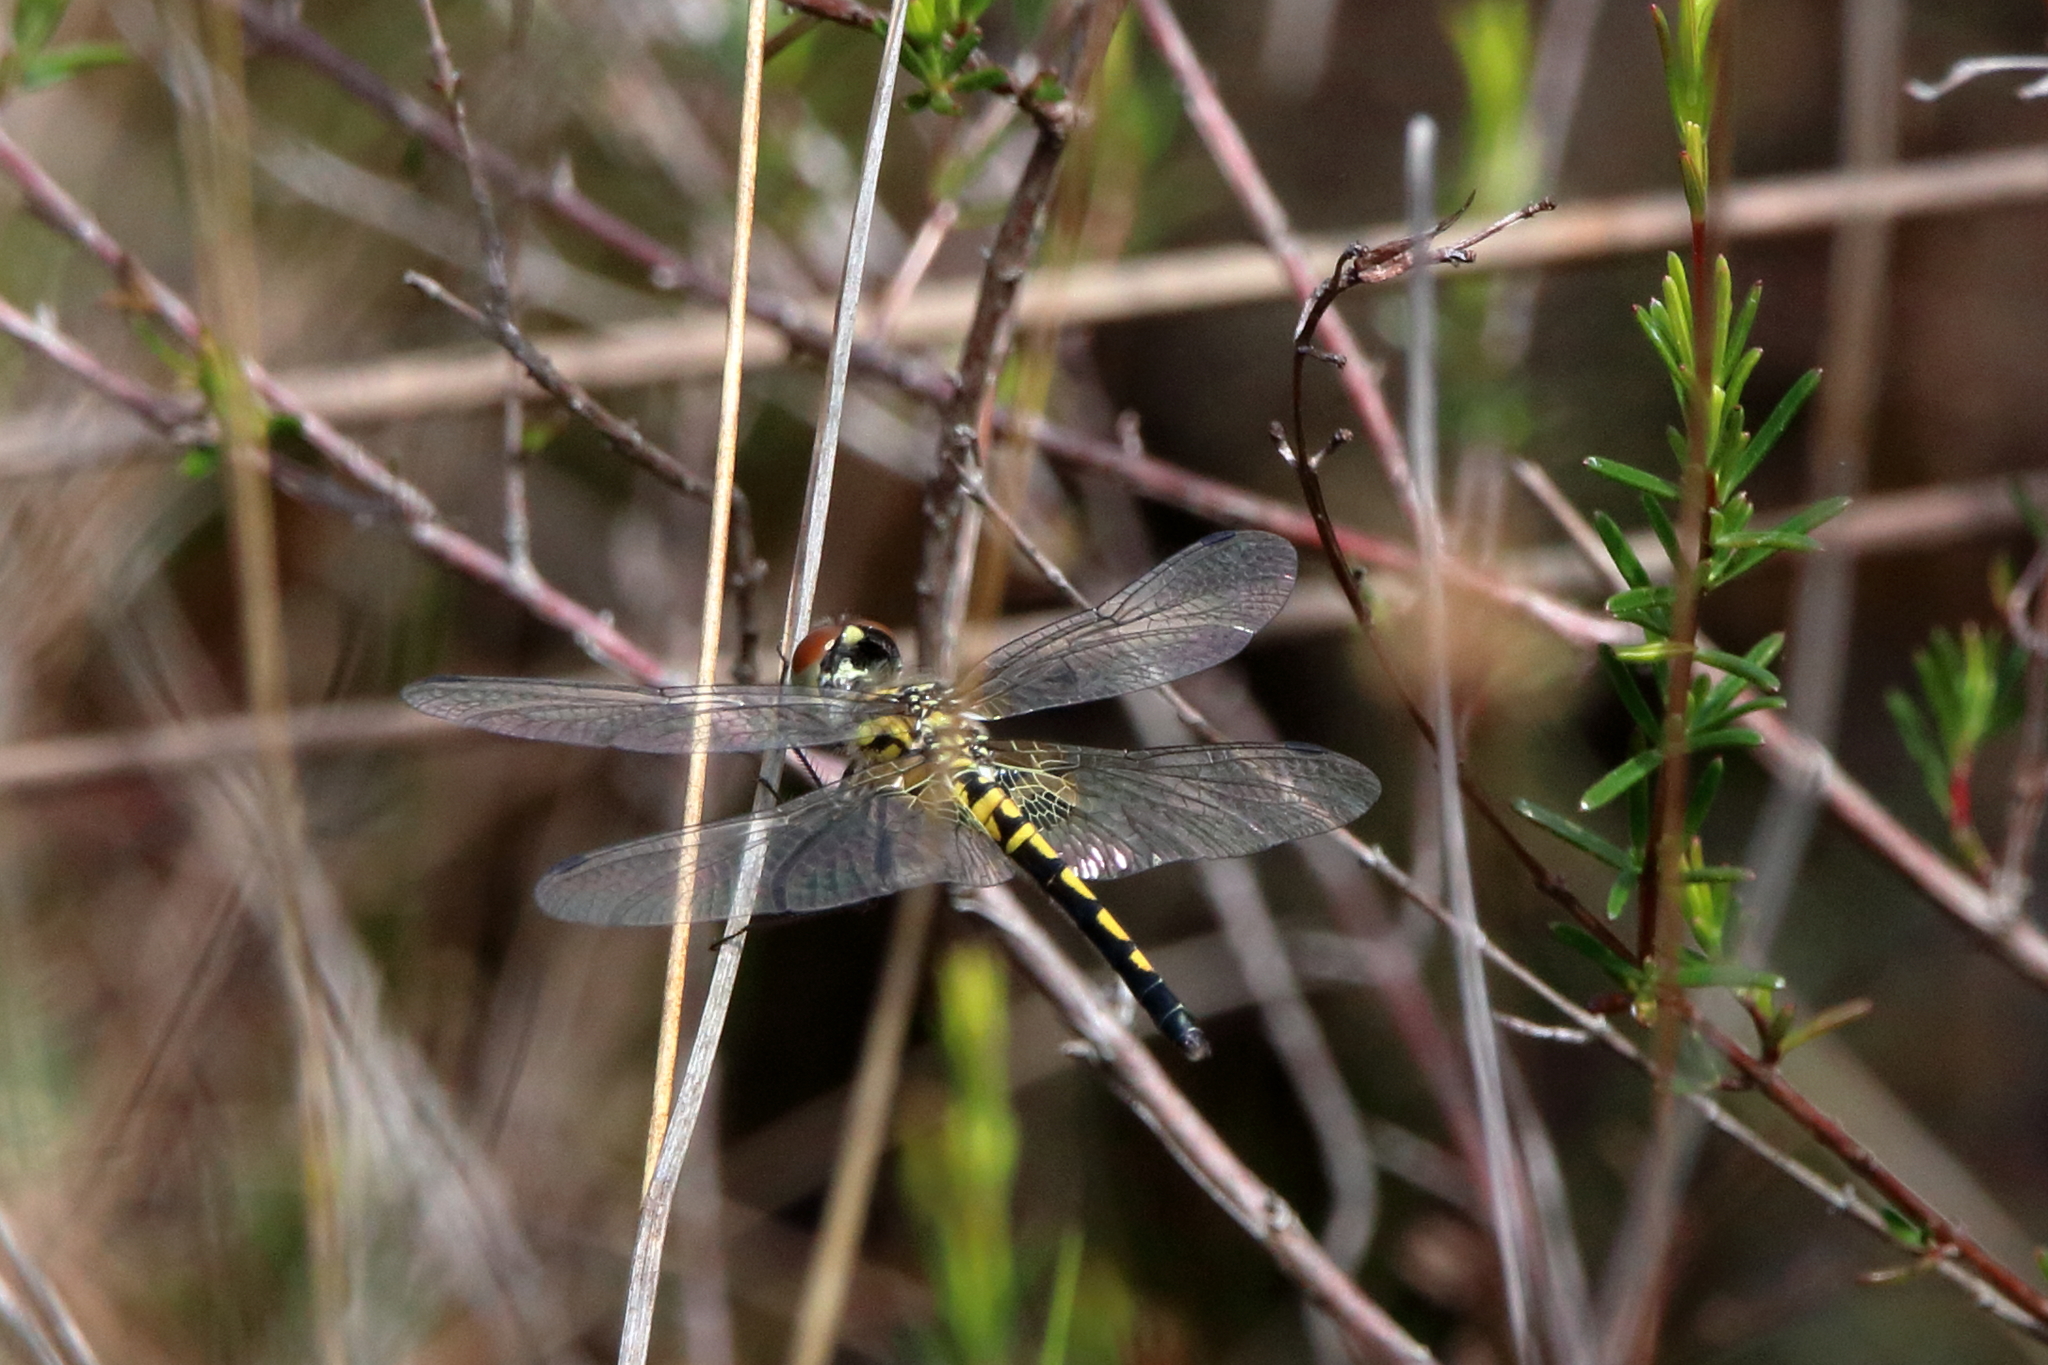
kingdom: Animalia
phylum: Arthropoda
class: Insecta
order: Odonata
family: Libellulidae
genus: Celithemis
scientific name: Celithemis ornata
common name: Ornate pennant
